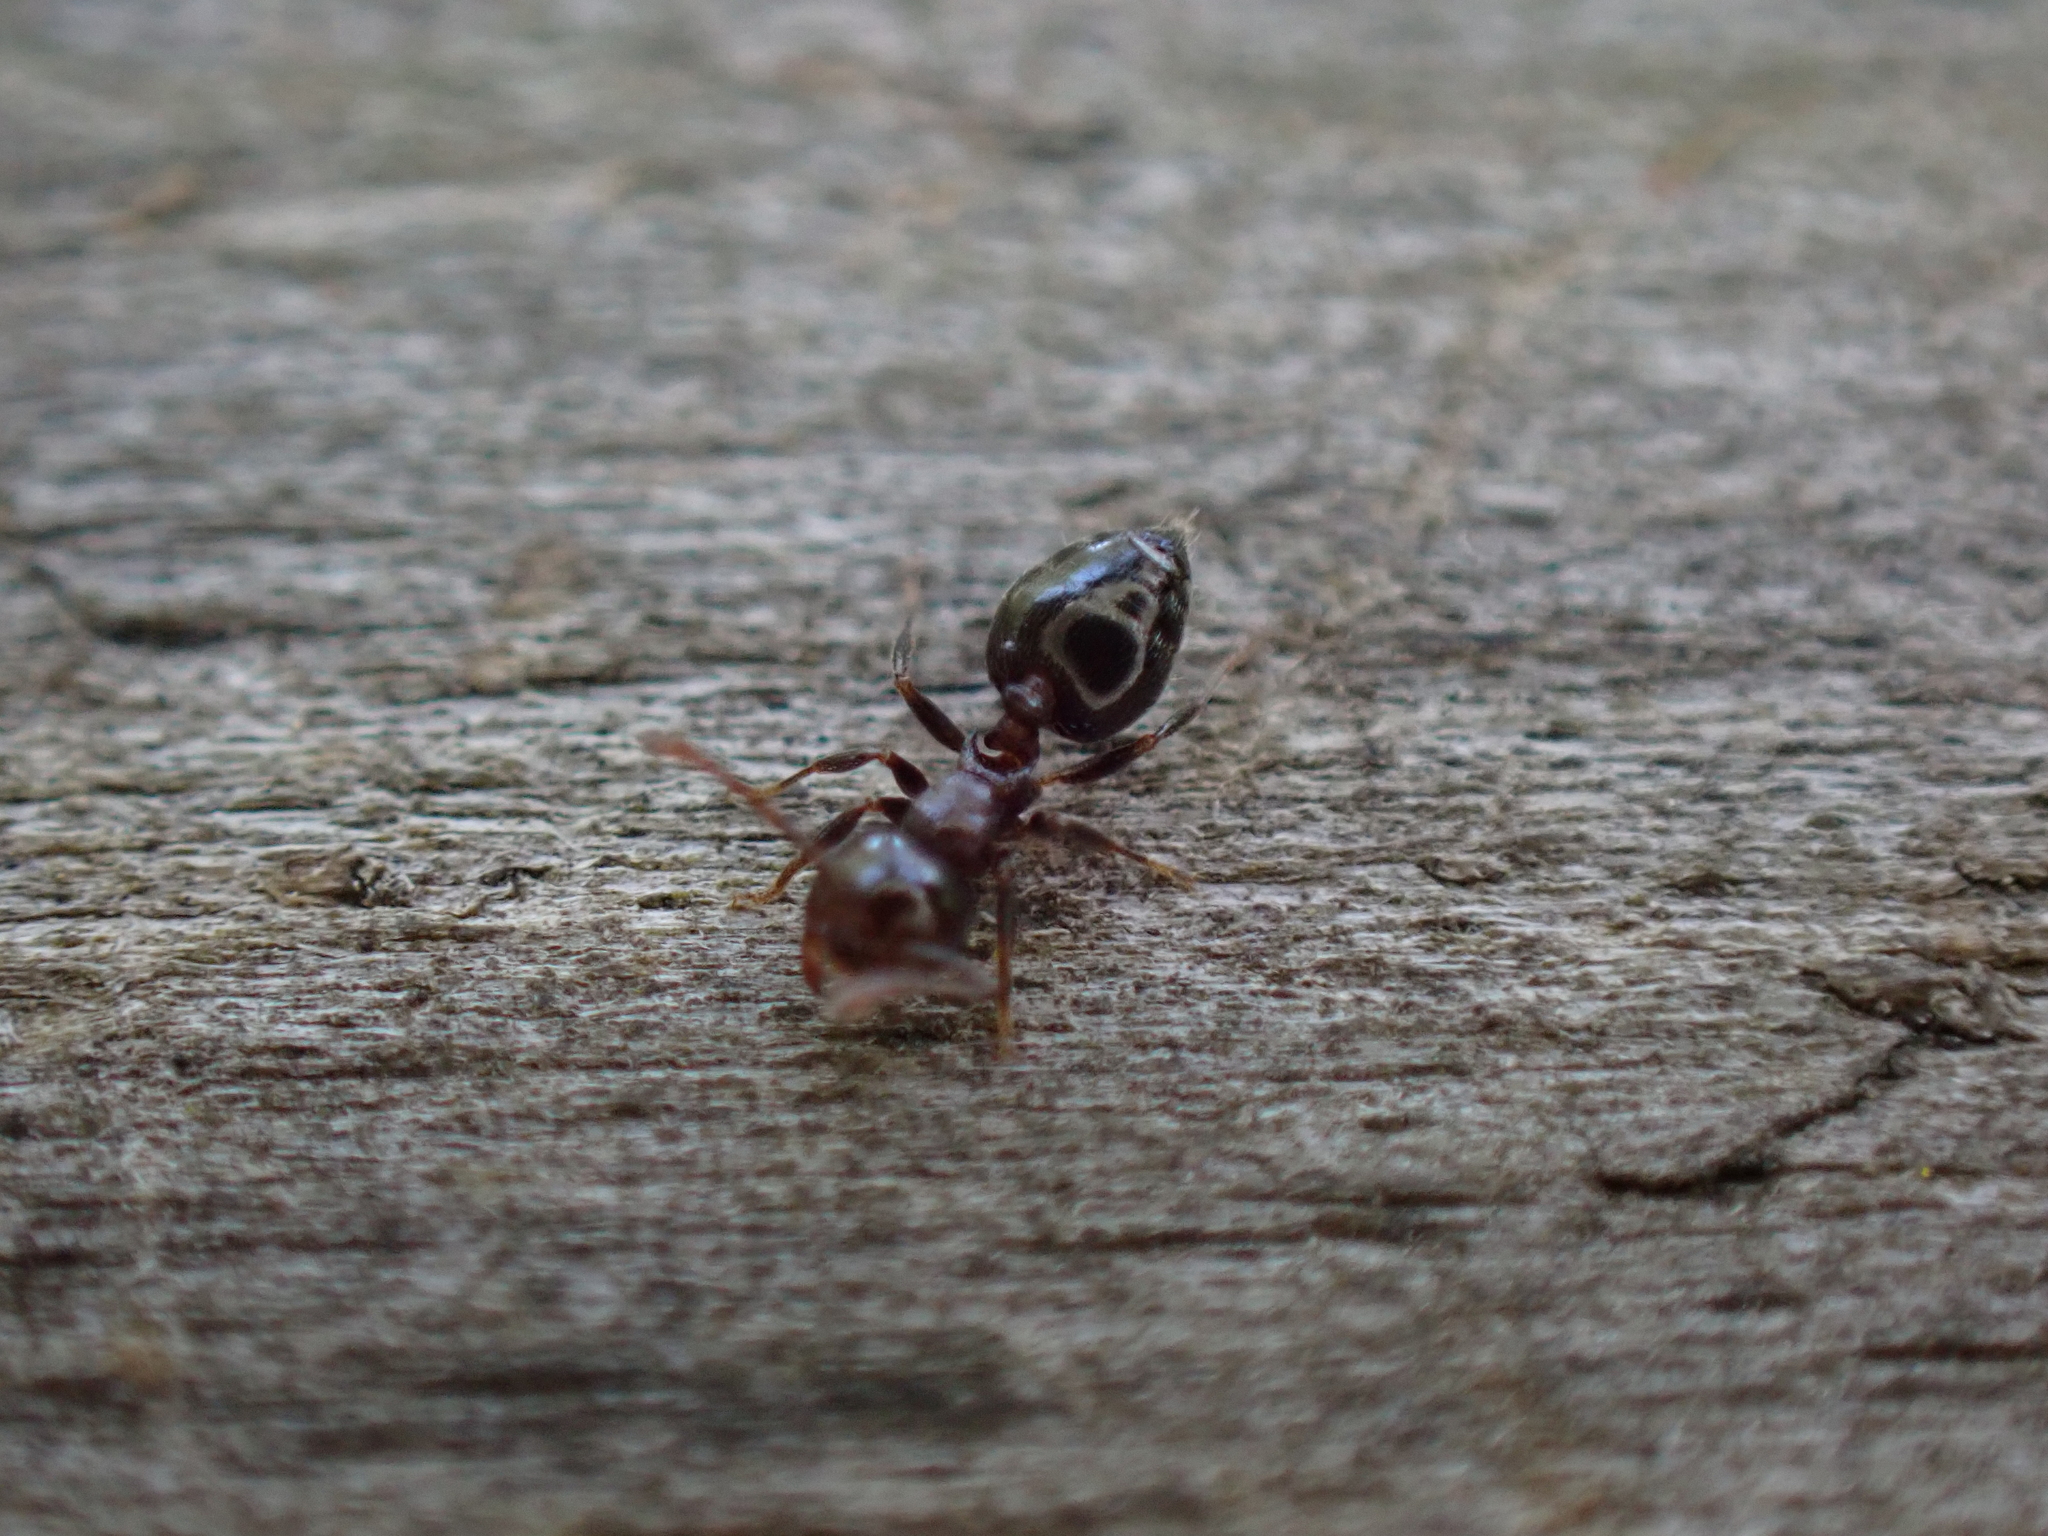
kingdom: Animalia
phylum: Arthropoda
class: Insecta
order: Hymenoptera
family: Formicidae
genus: Crematogaster
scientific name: Crematogaster ashmeadi
